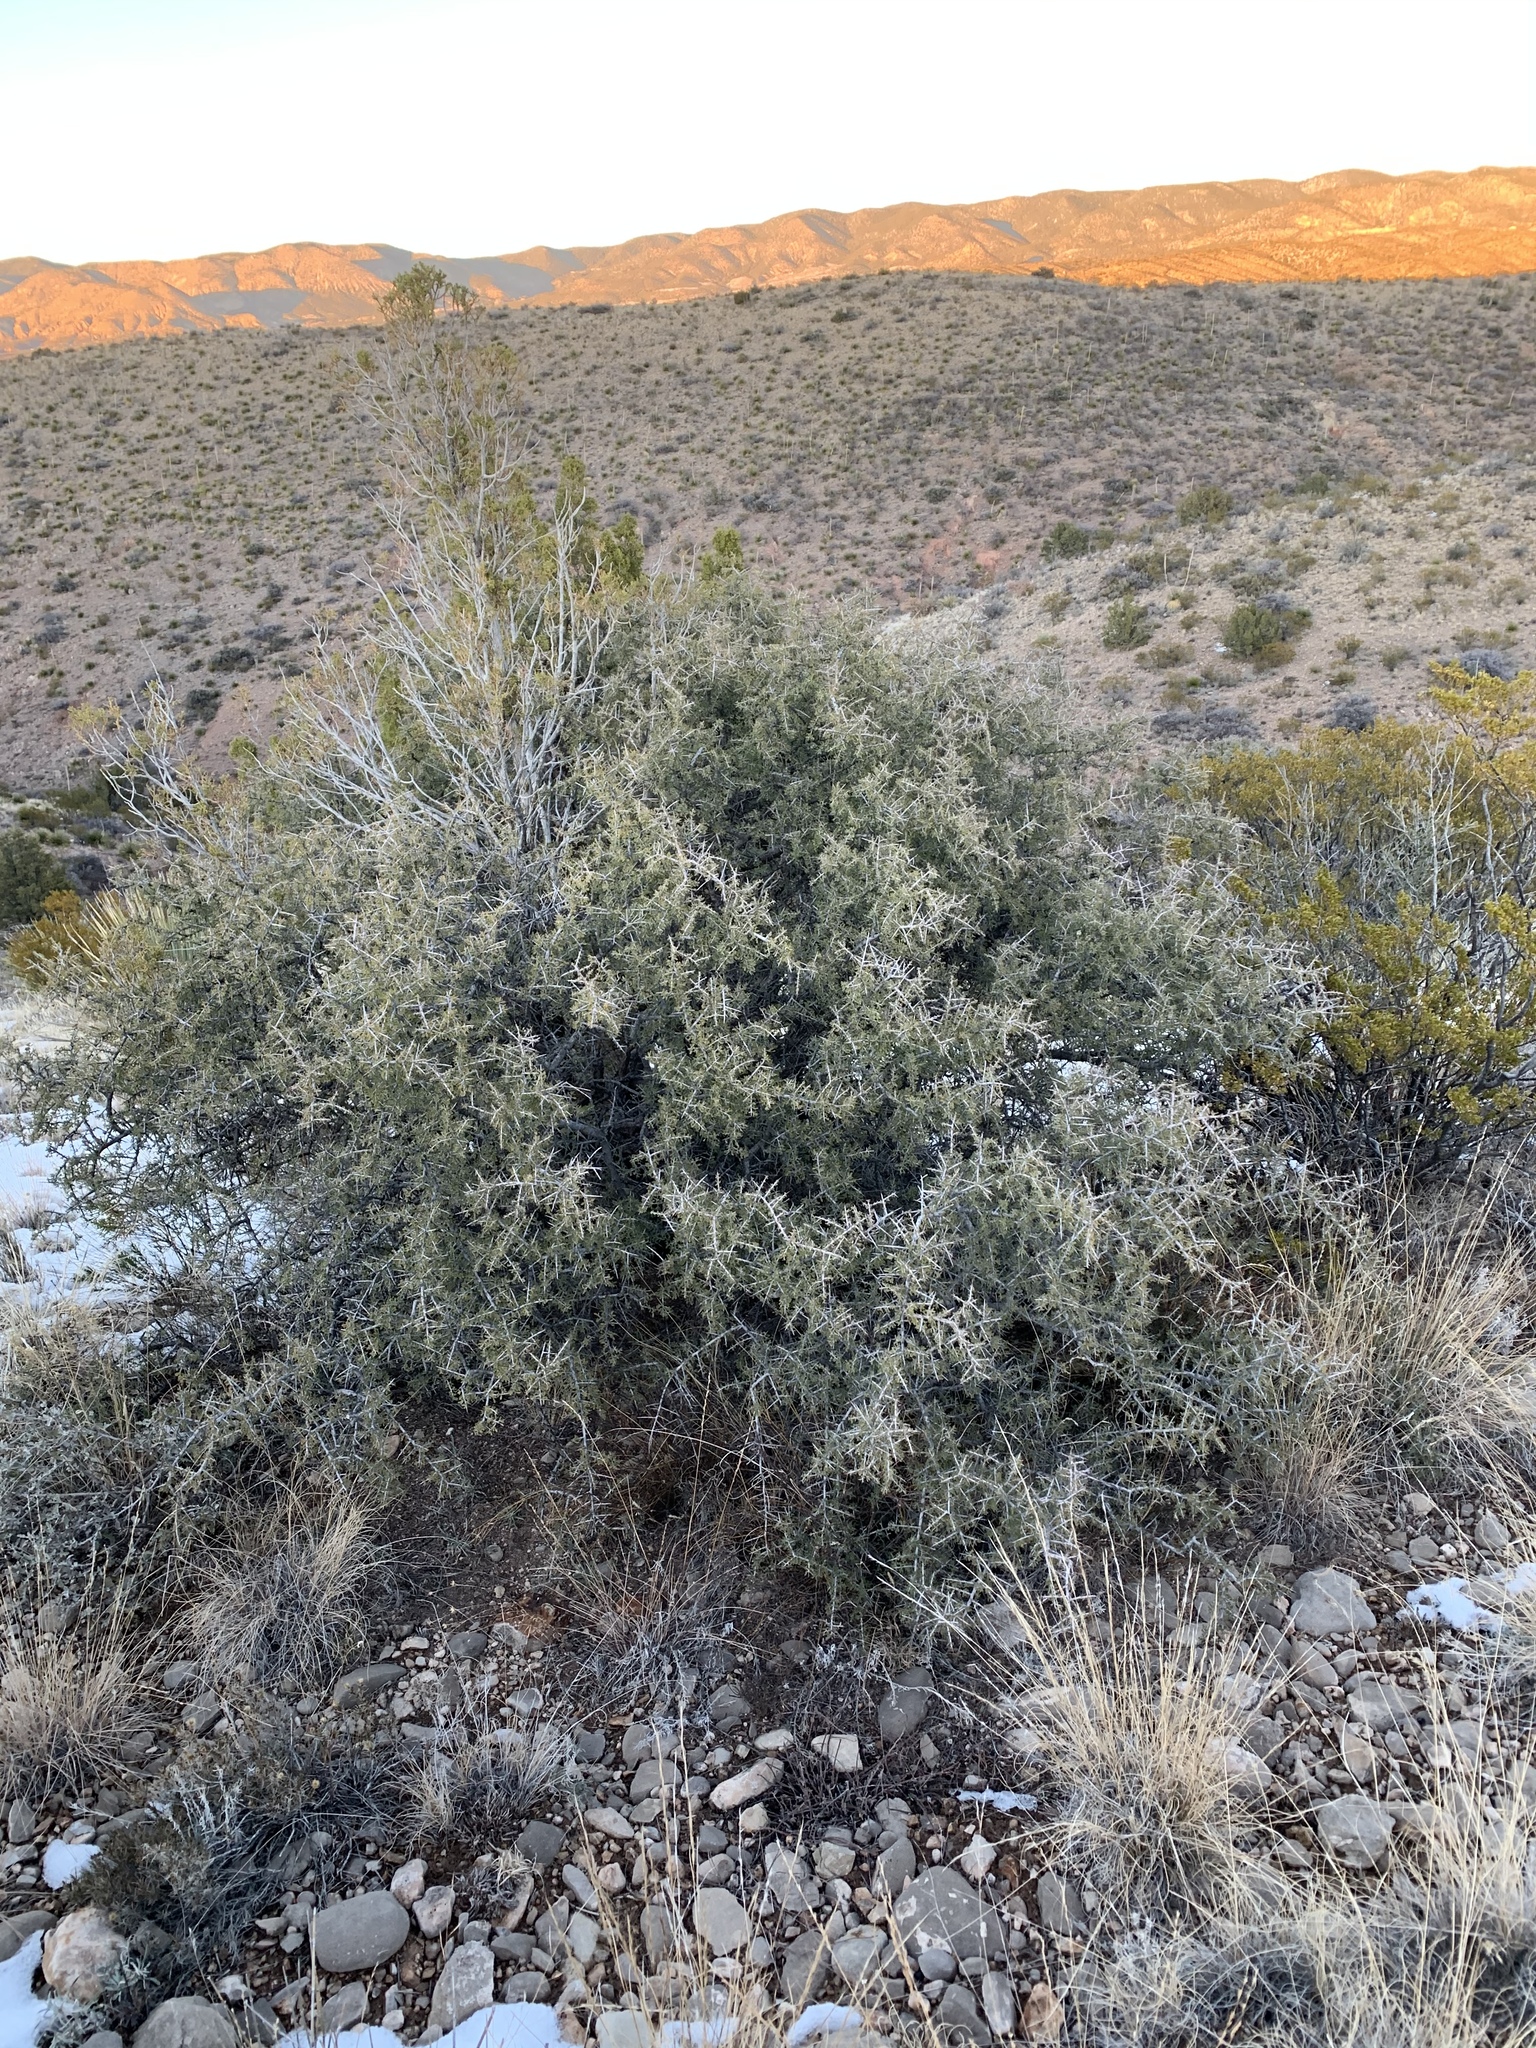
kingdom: Plantae
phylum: Tracheophyta
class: Magnoliopsida
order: Rosales
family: Rhamnaceae
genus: Condalia
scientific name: Condalia warnockii
